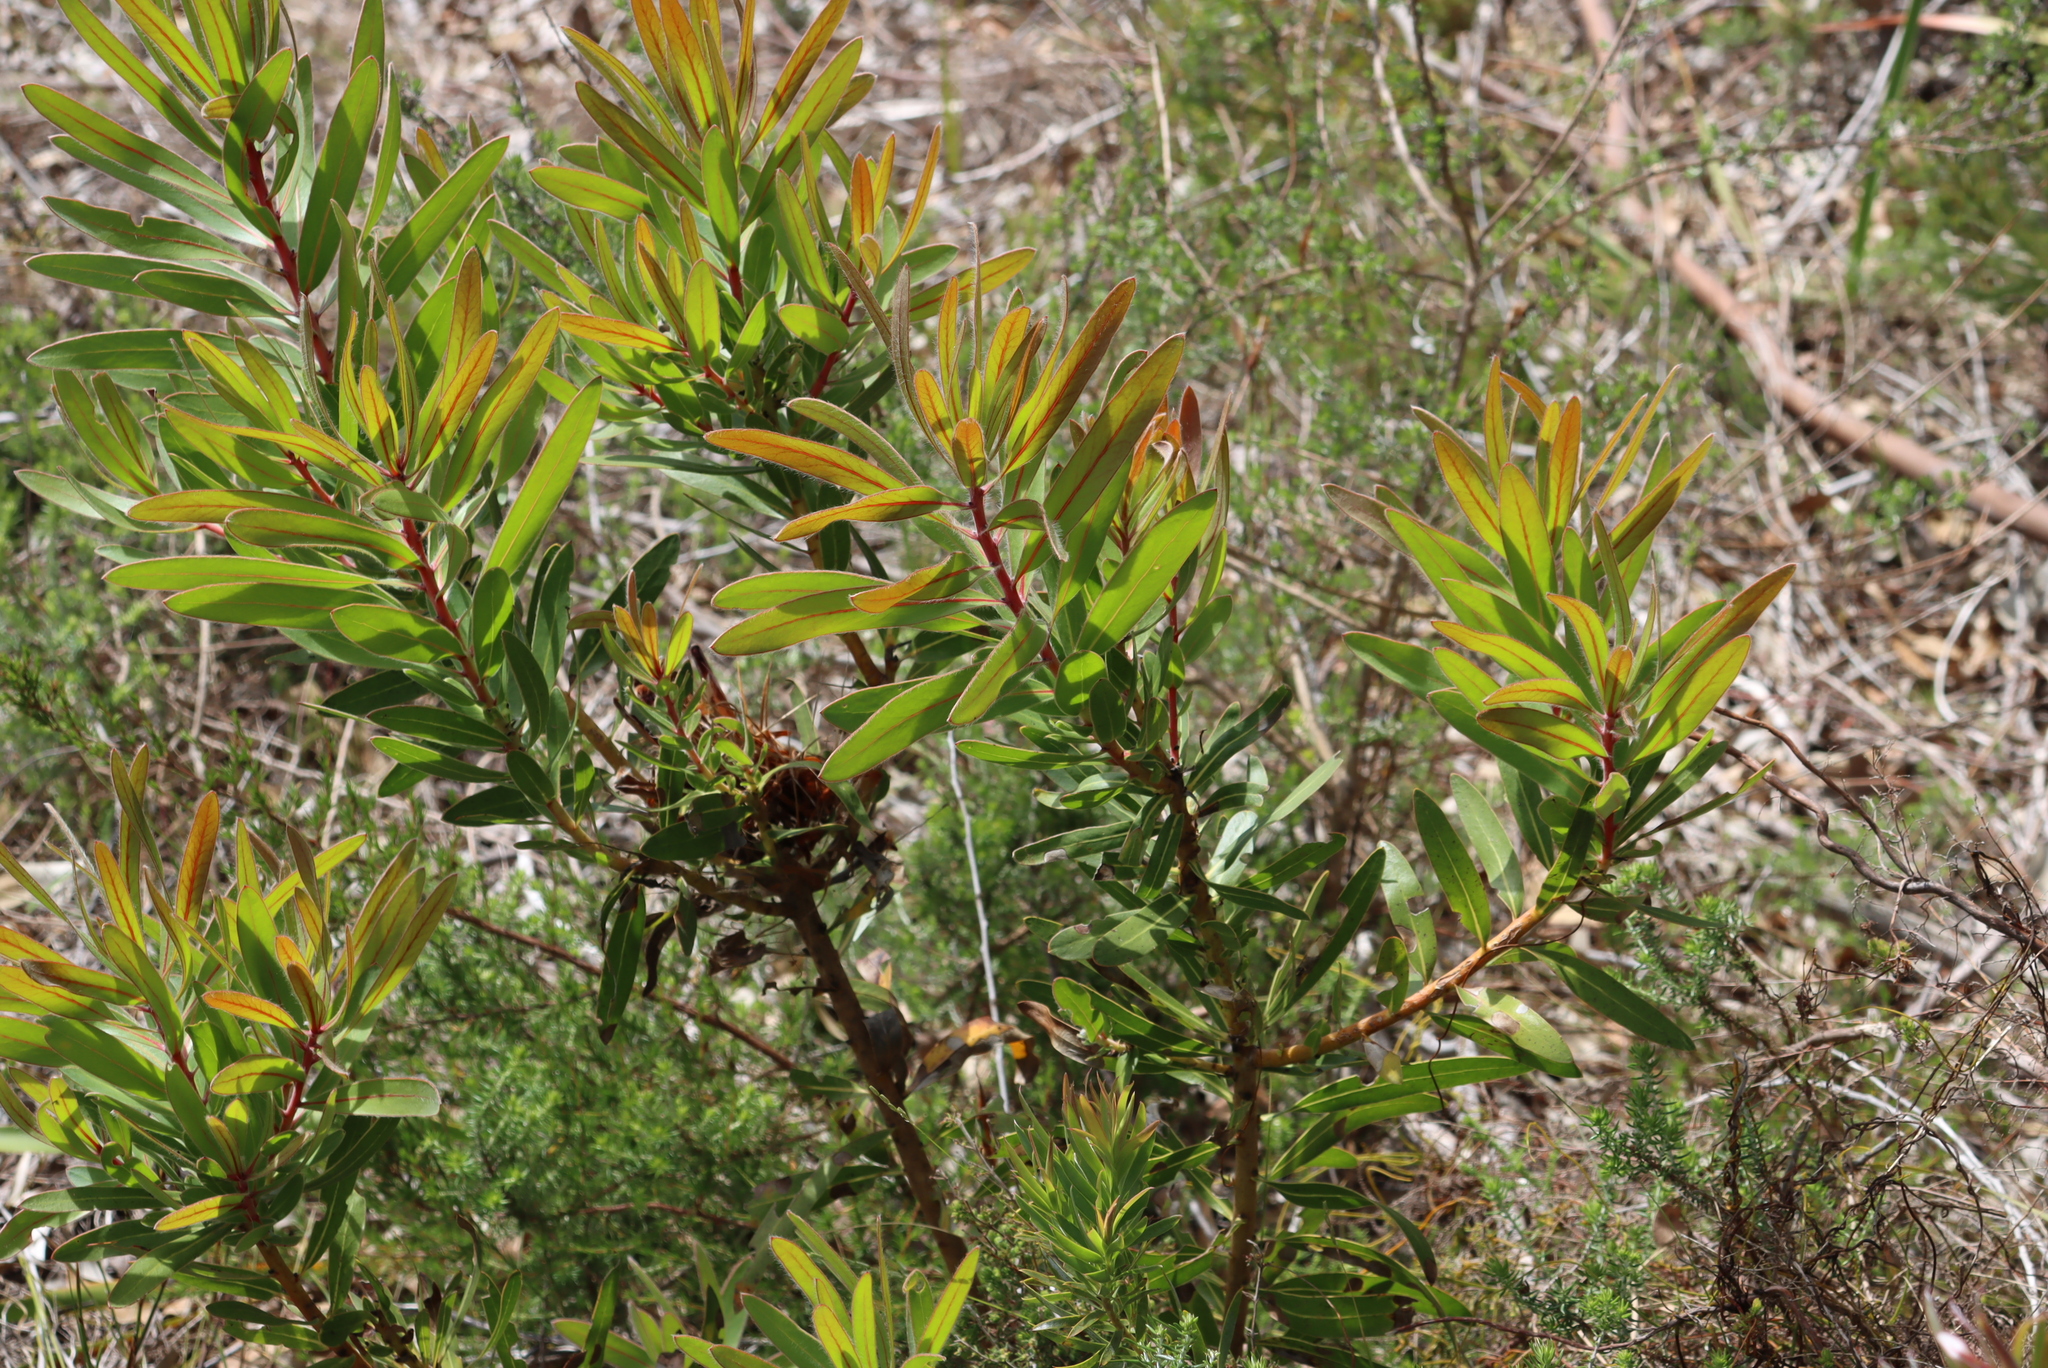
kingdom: Plantae
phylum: Tracheophyta
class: Magnoliopsida
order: Proteales
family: Proteaceae
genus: Protea
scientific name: Protea lepidocarpodendron
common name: Black-bearded protea
